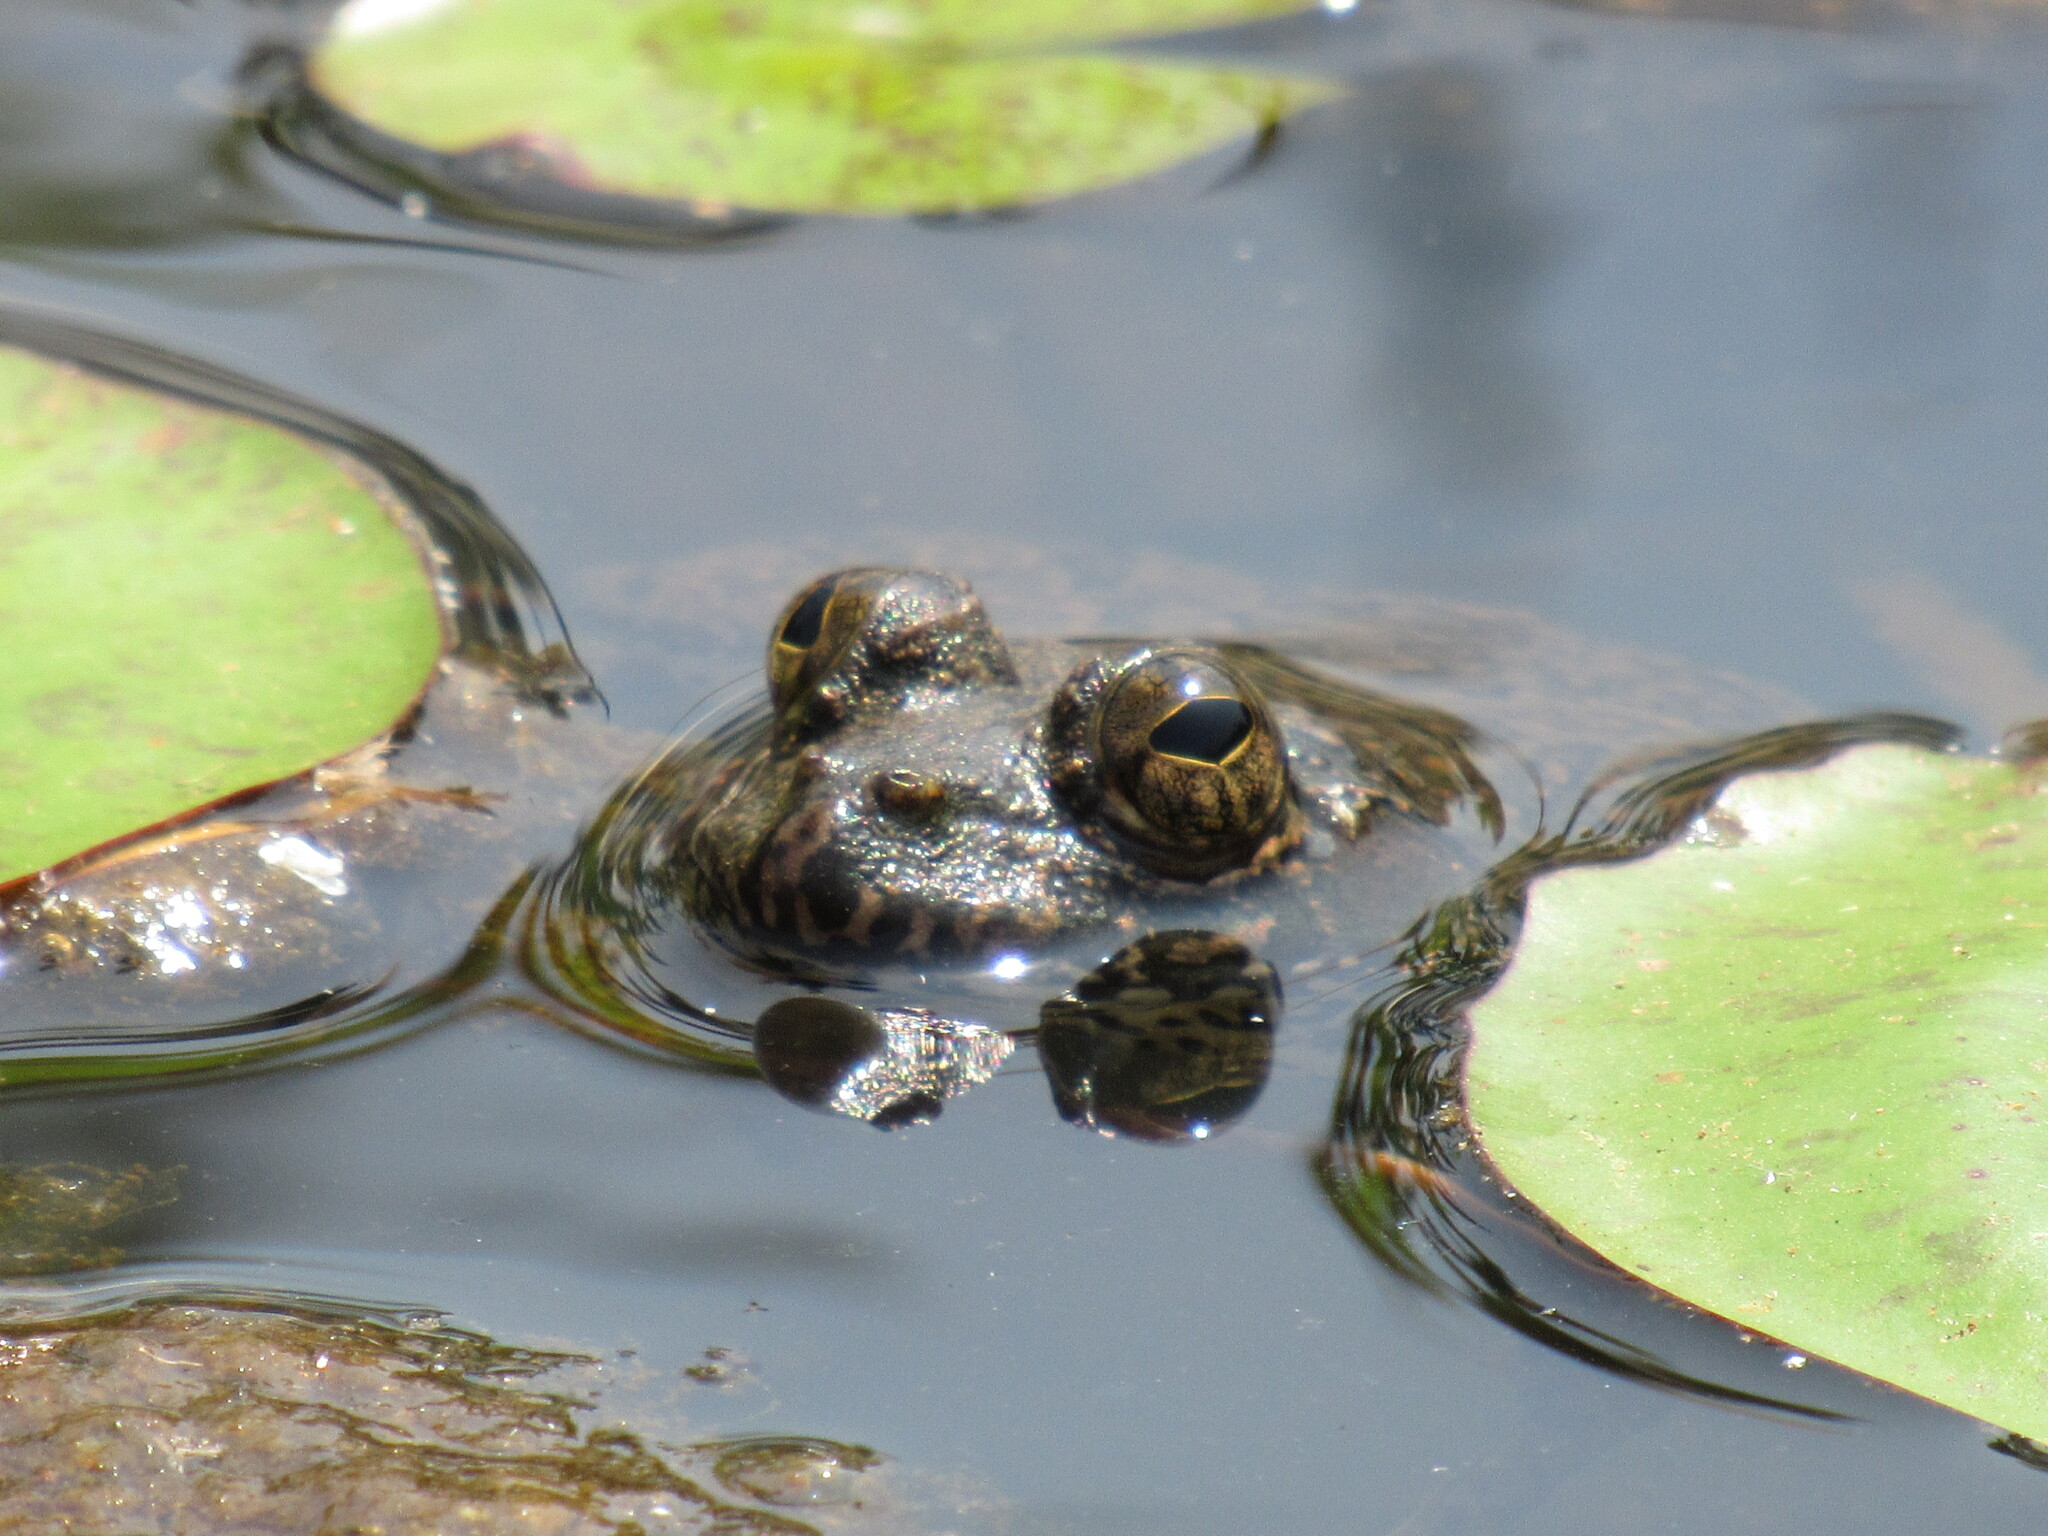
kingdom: Animalia
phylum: Chordata
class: Amphibia
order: Anura
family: Dicroglossidae
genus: Euphlyctis
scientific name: Euphlyctis cyanophlyctis
